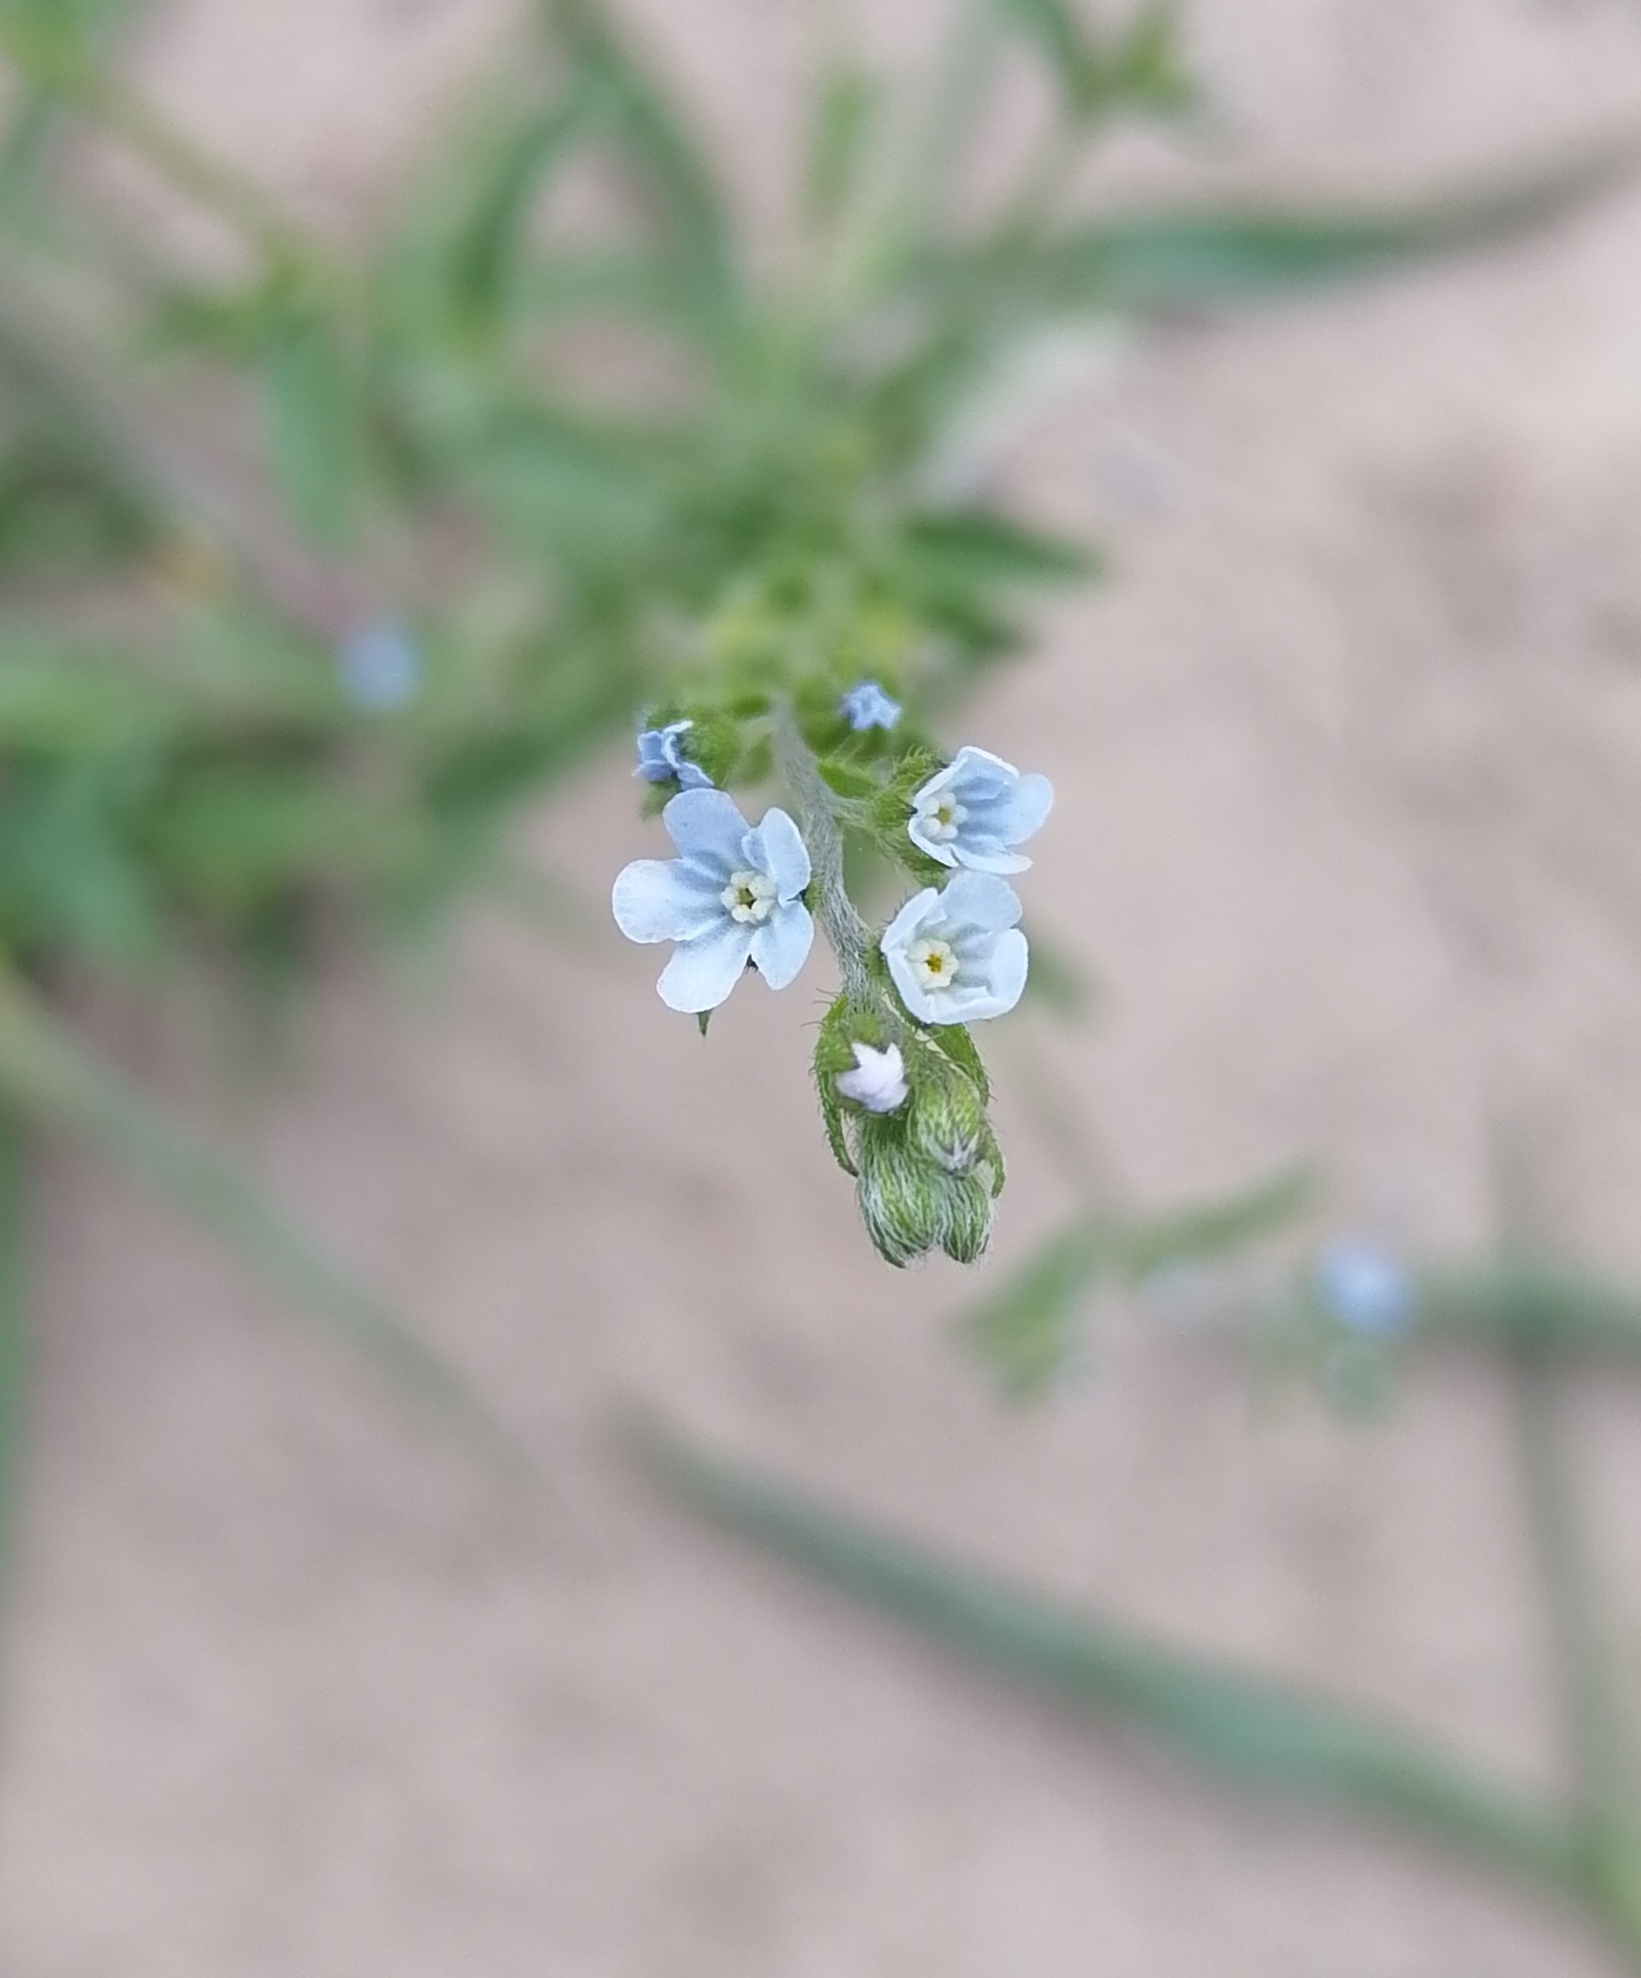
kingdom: Plantae
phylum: Tracheophyta
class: Magnoliopsida
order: Boraginales
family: Boraginaceae
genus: Lappula
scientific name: Lappula squarrosa
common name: European stickseed
